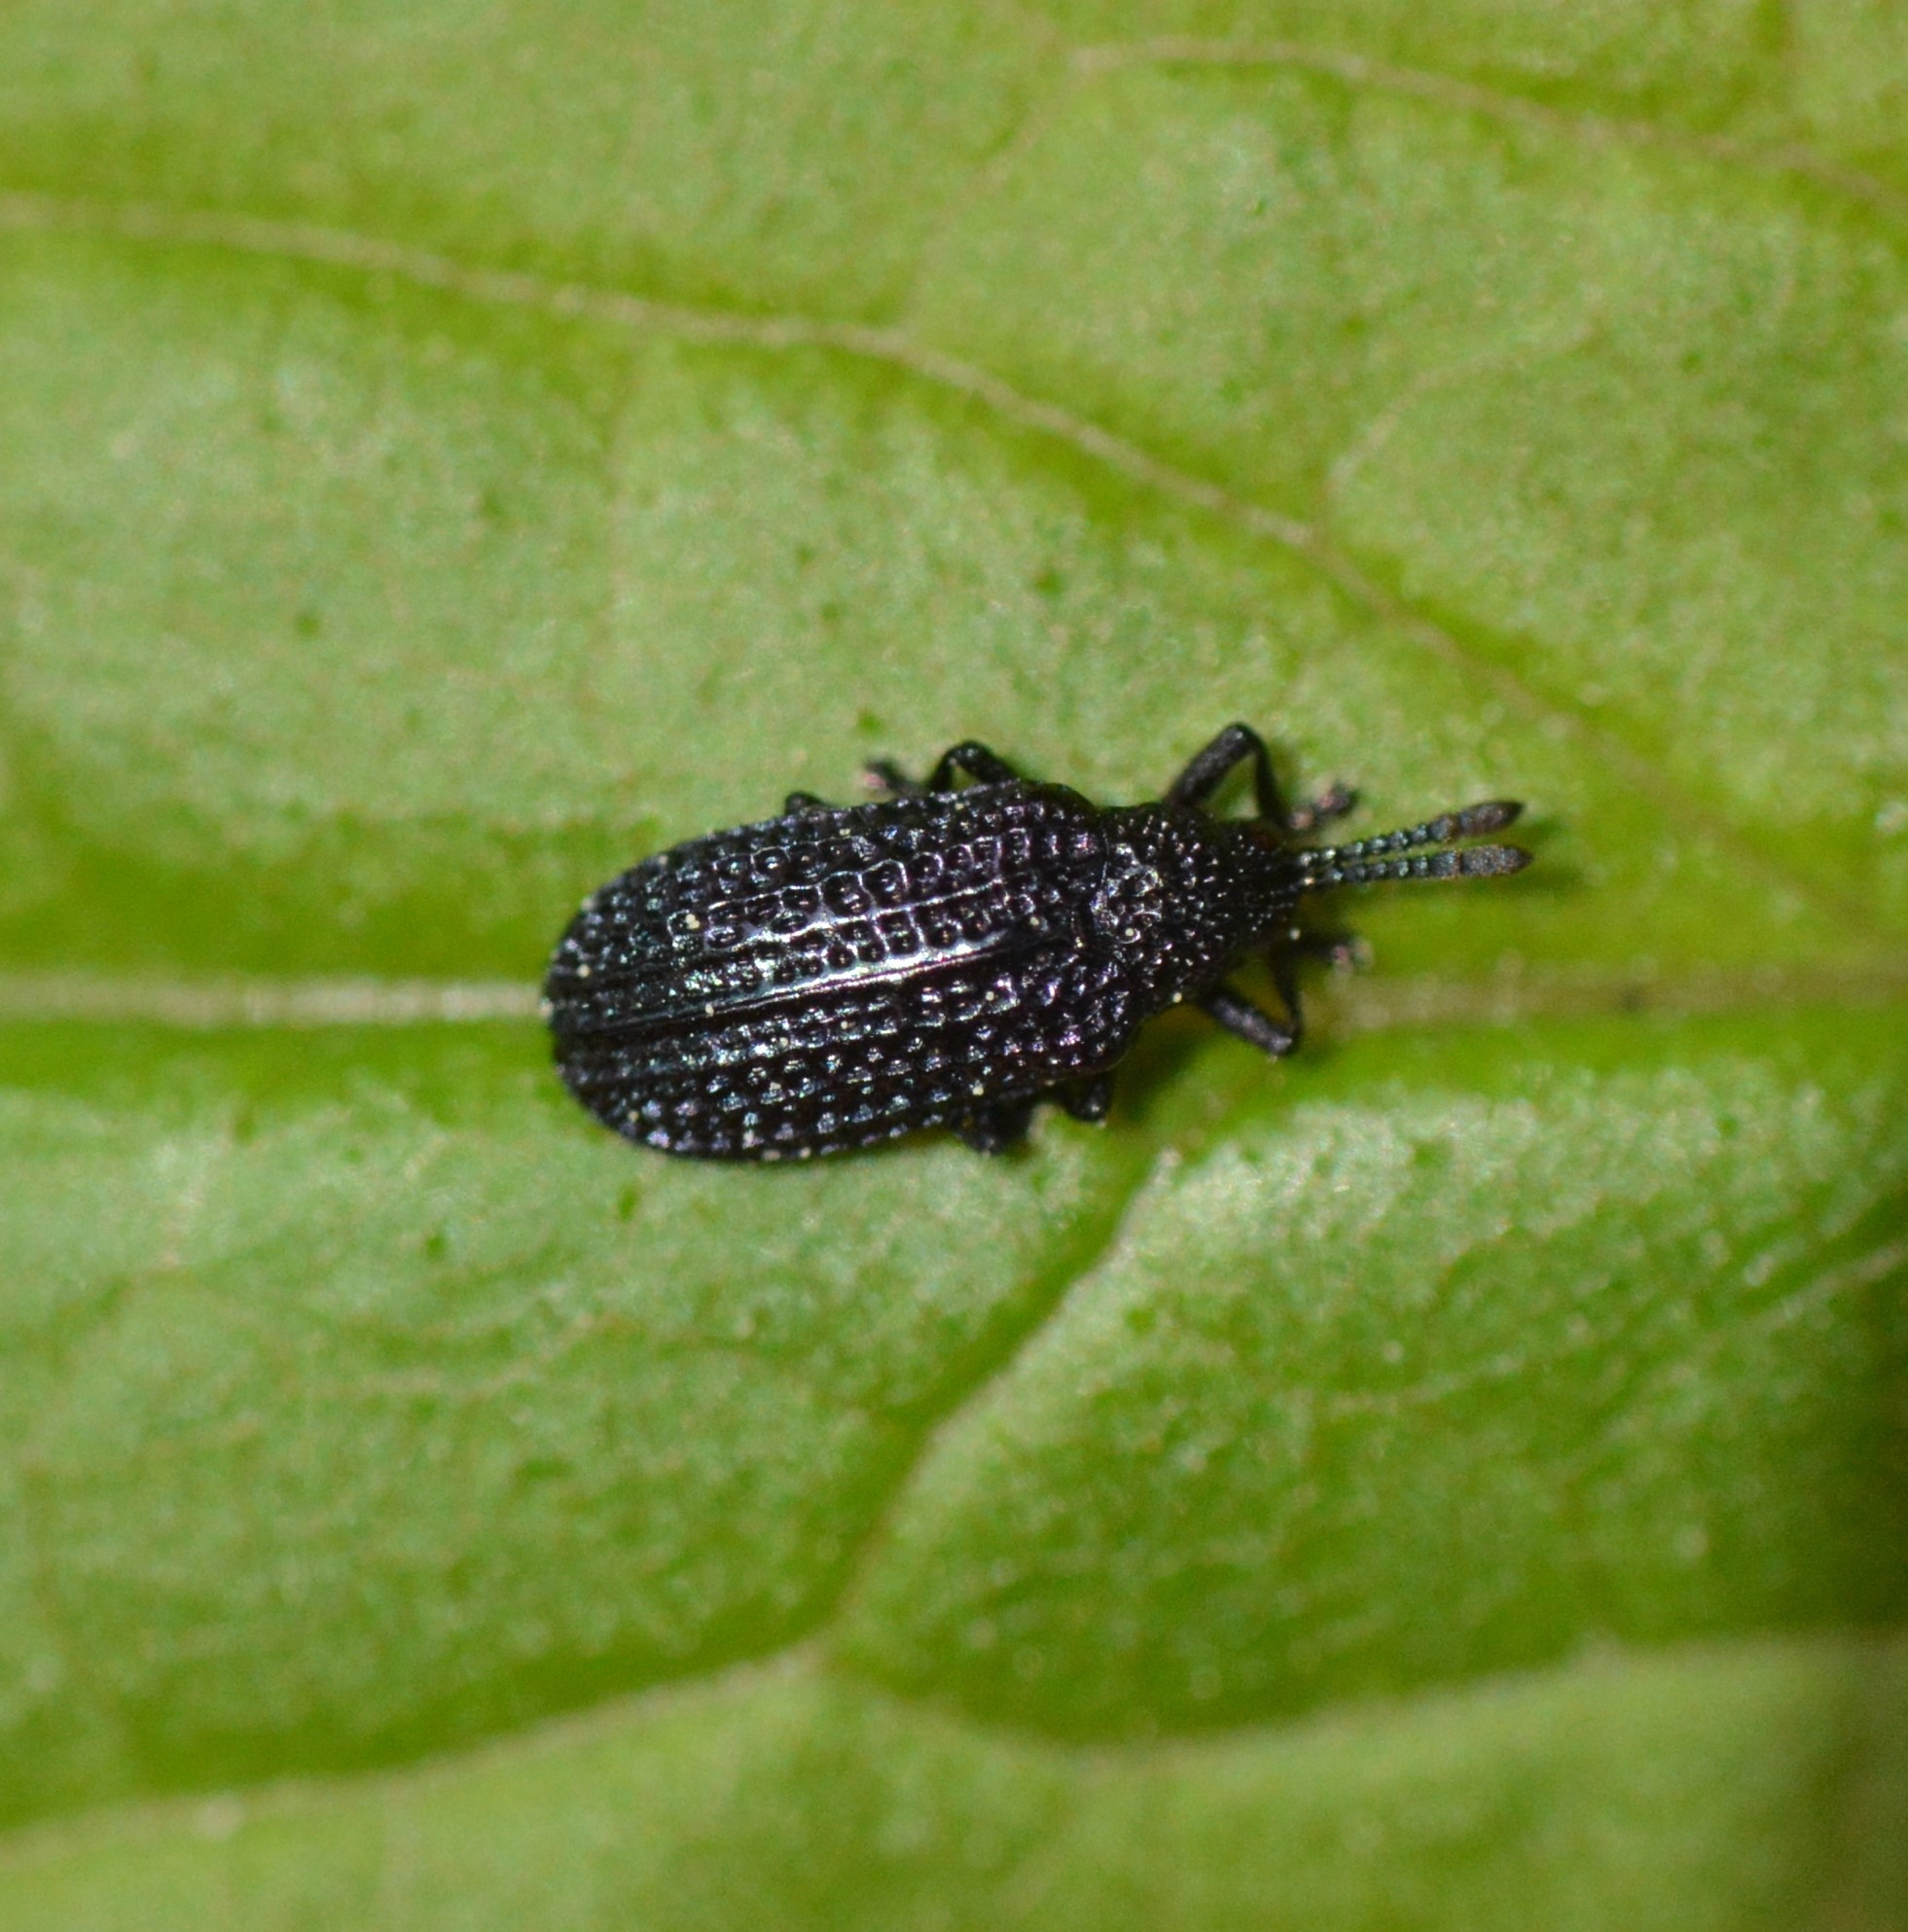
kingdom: Animalia
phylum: Arthropoda
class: Insecta
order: Coleoptera
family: Chrysomelidae
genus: Microrhopala
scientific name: Microrhopala excavata
